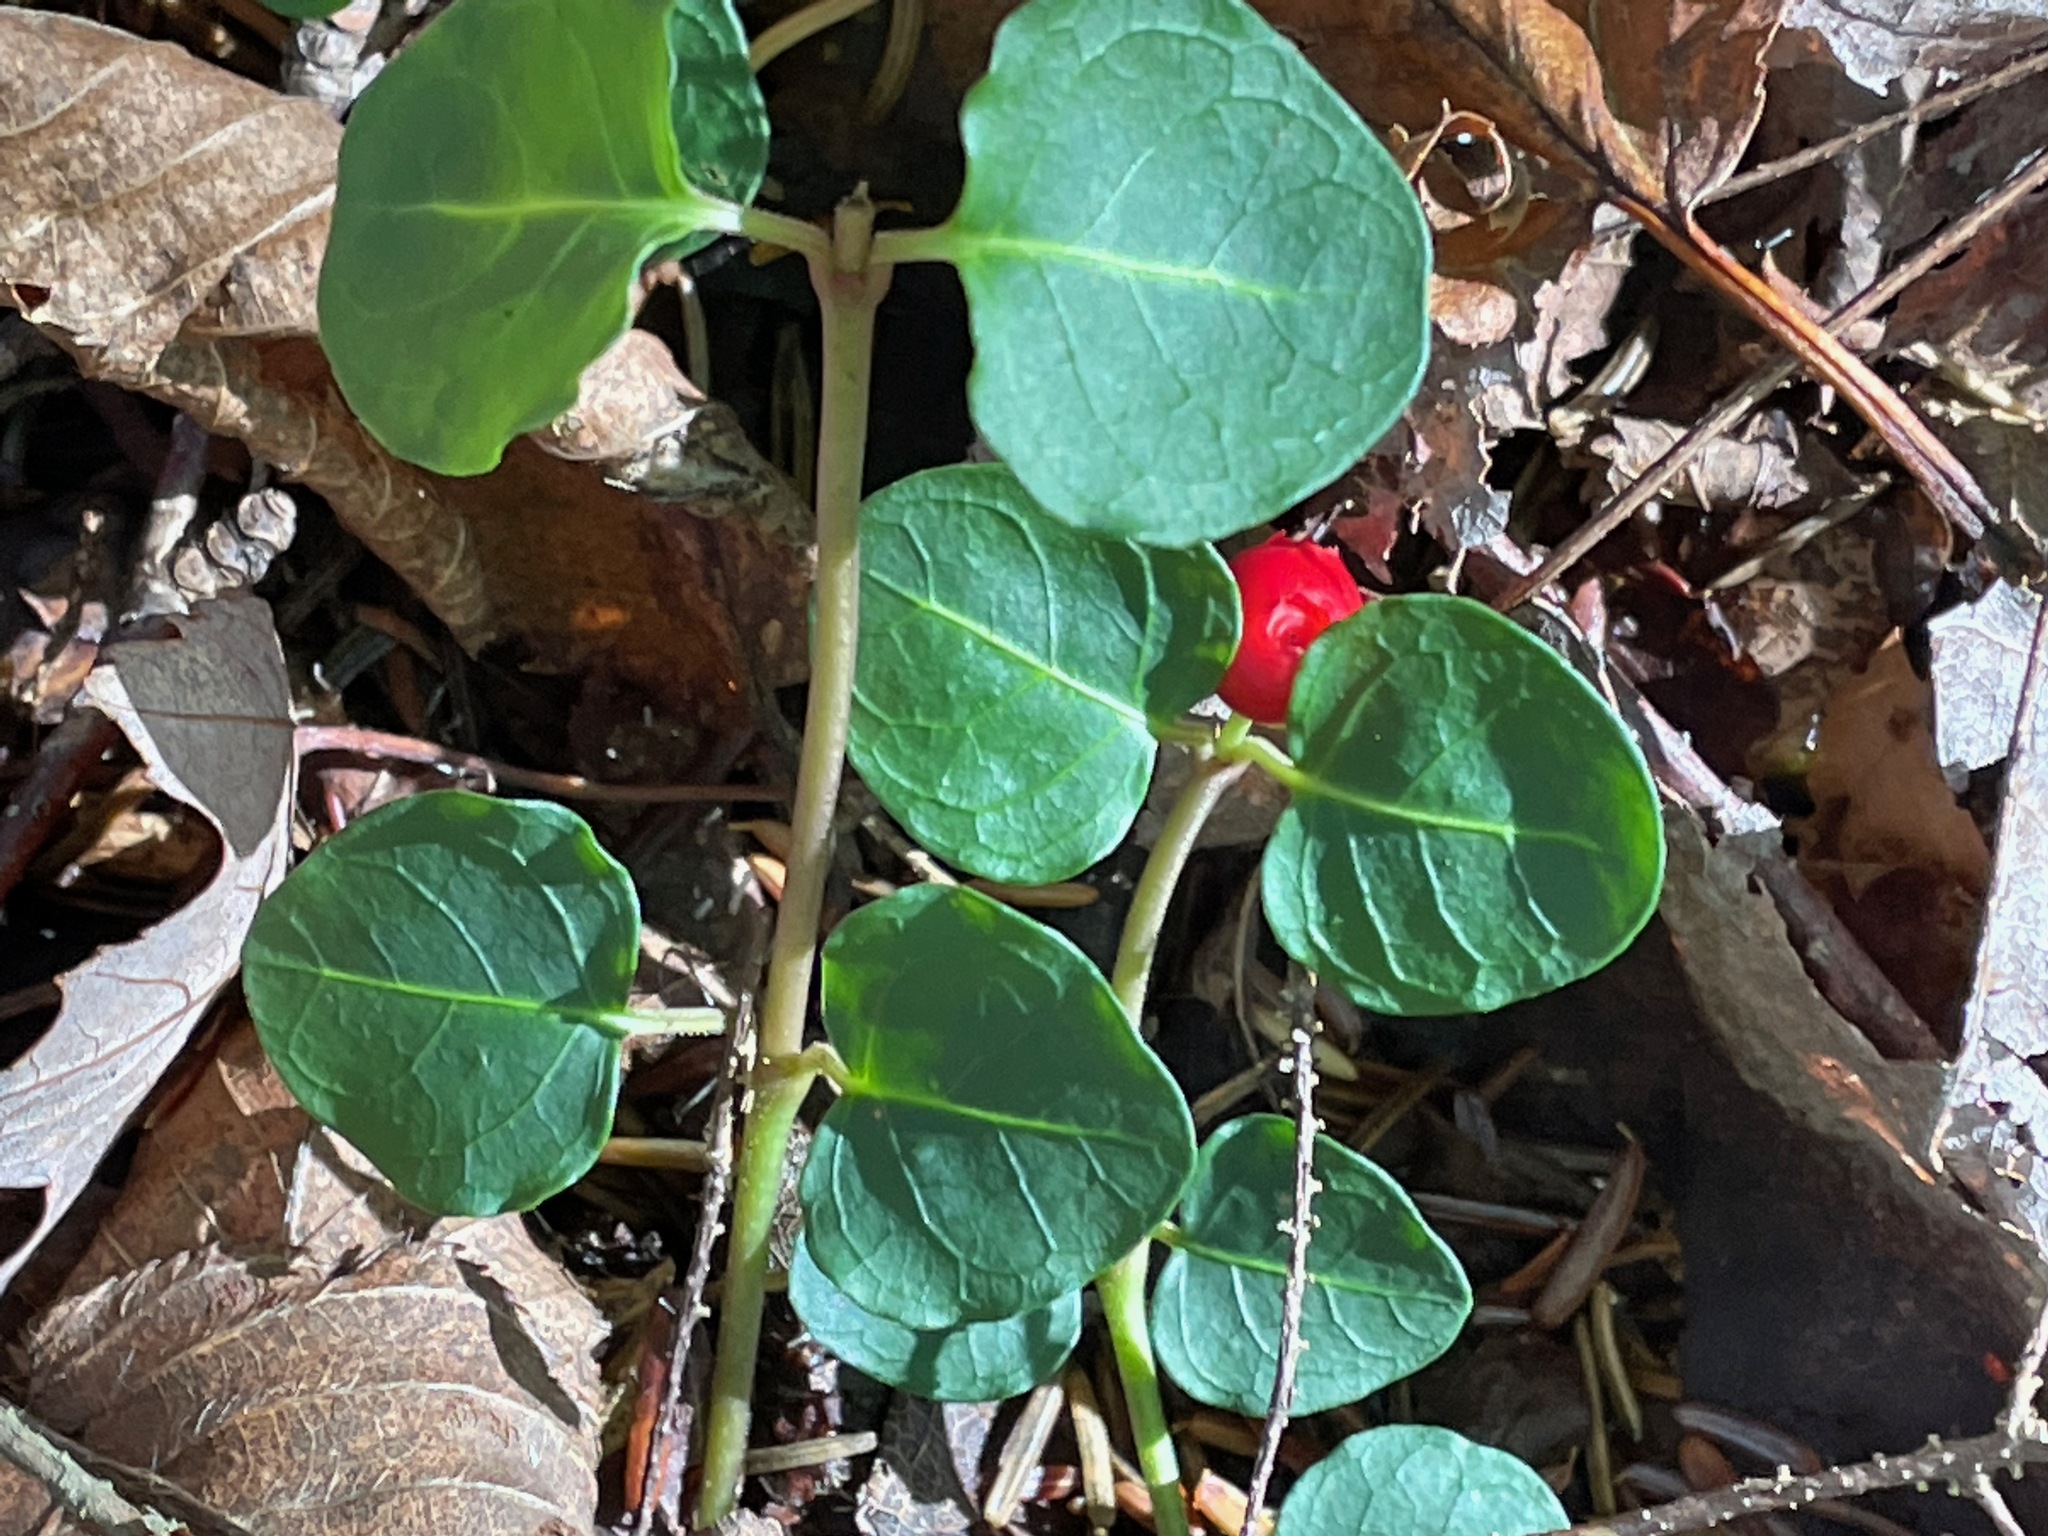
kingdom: Plantae
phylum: Tracheophyta
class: Magnoliopsida
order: Gentianales
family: Rubiaceae
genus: Mitchella
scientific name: Mitchella repens
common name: Partridge-berry
